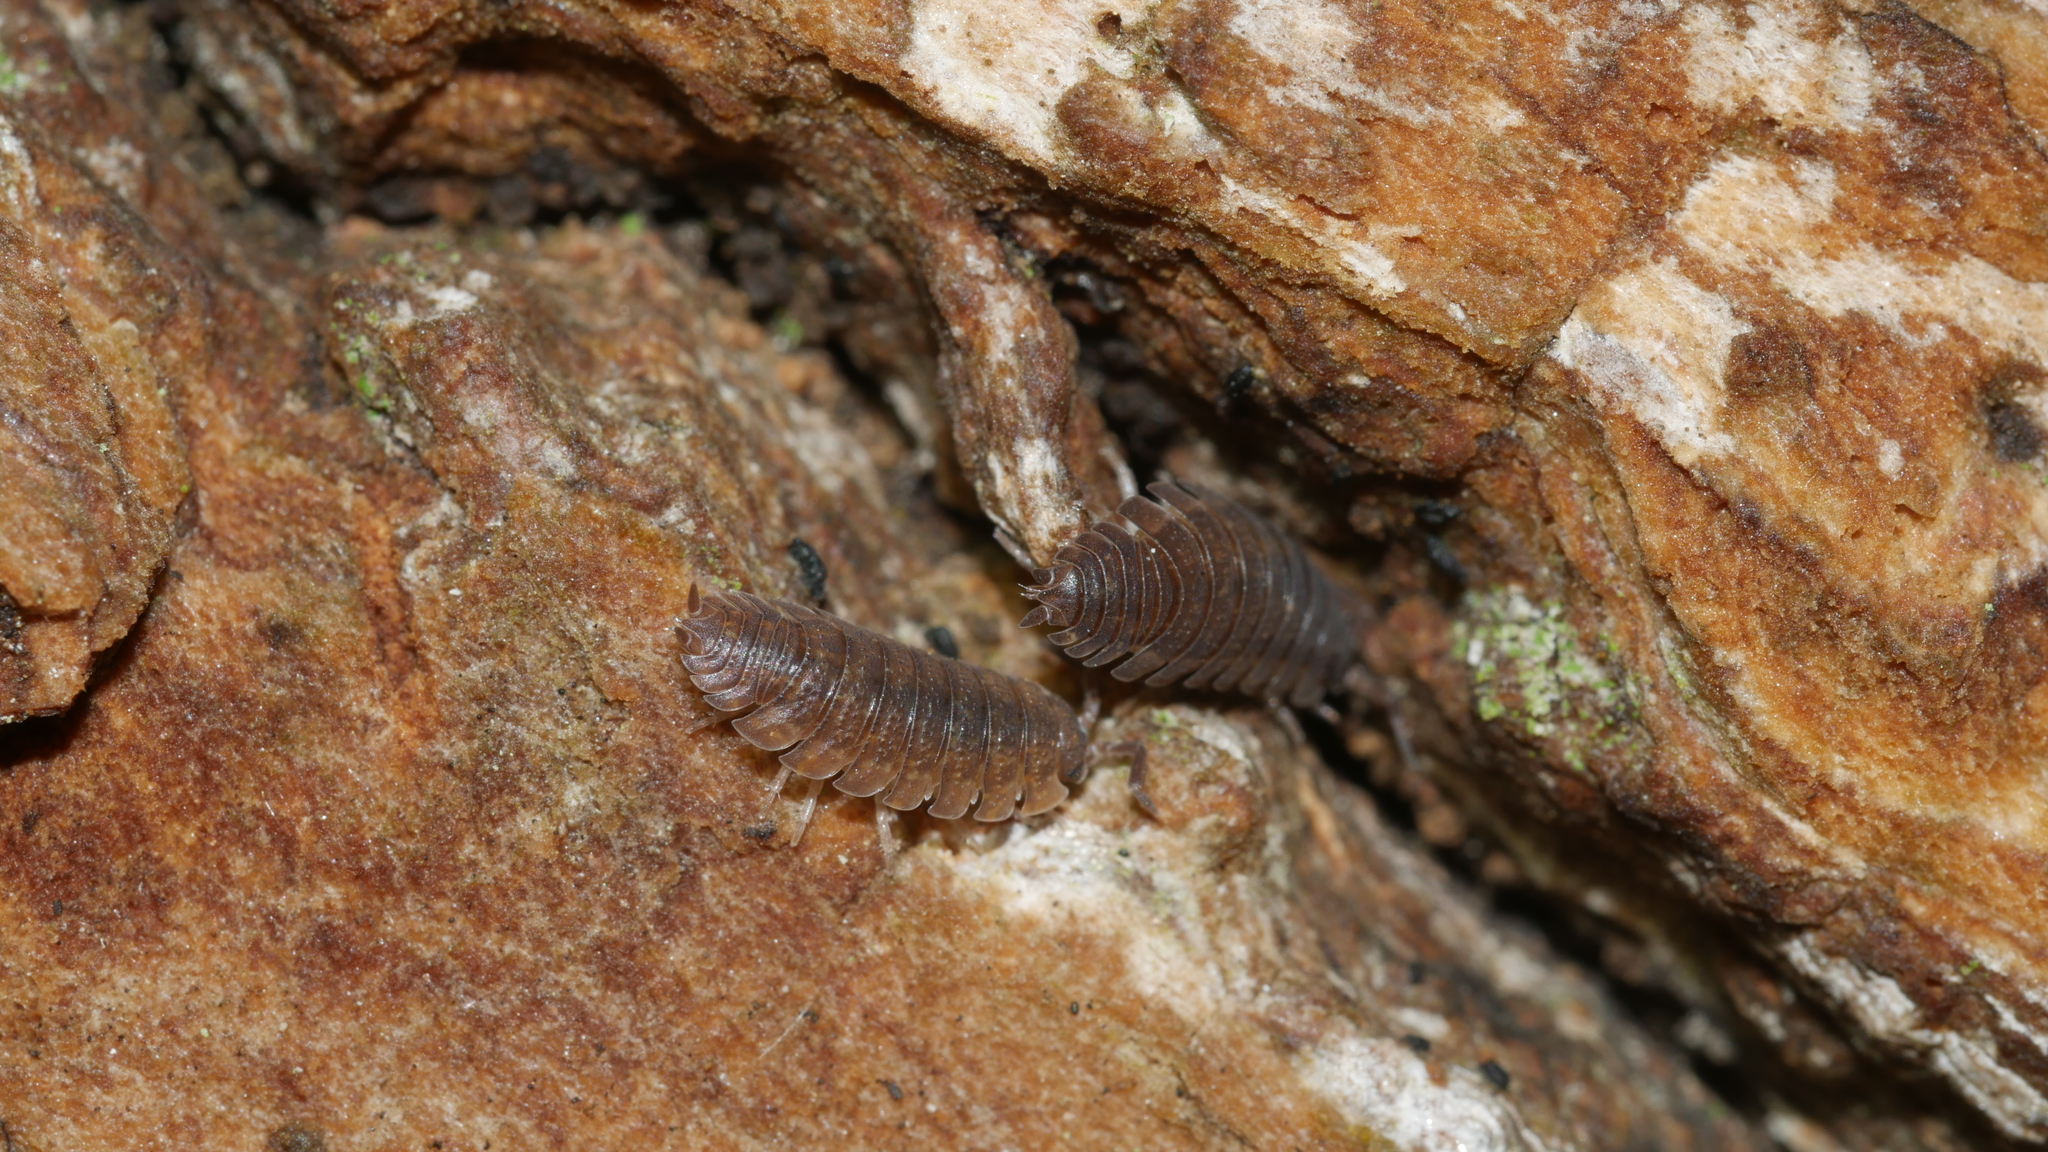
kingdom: Animalia
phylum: Arthropoda
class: Malacostraca
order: Isopoda
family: Porcellionidae
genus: Porcellio
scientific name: Porcellio scaber
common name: Common rough woodlouse
